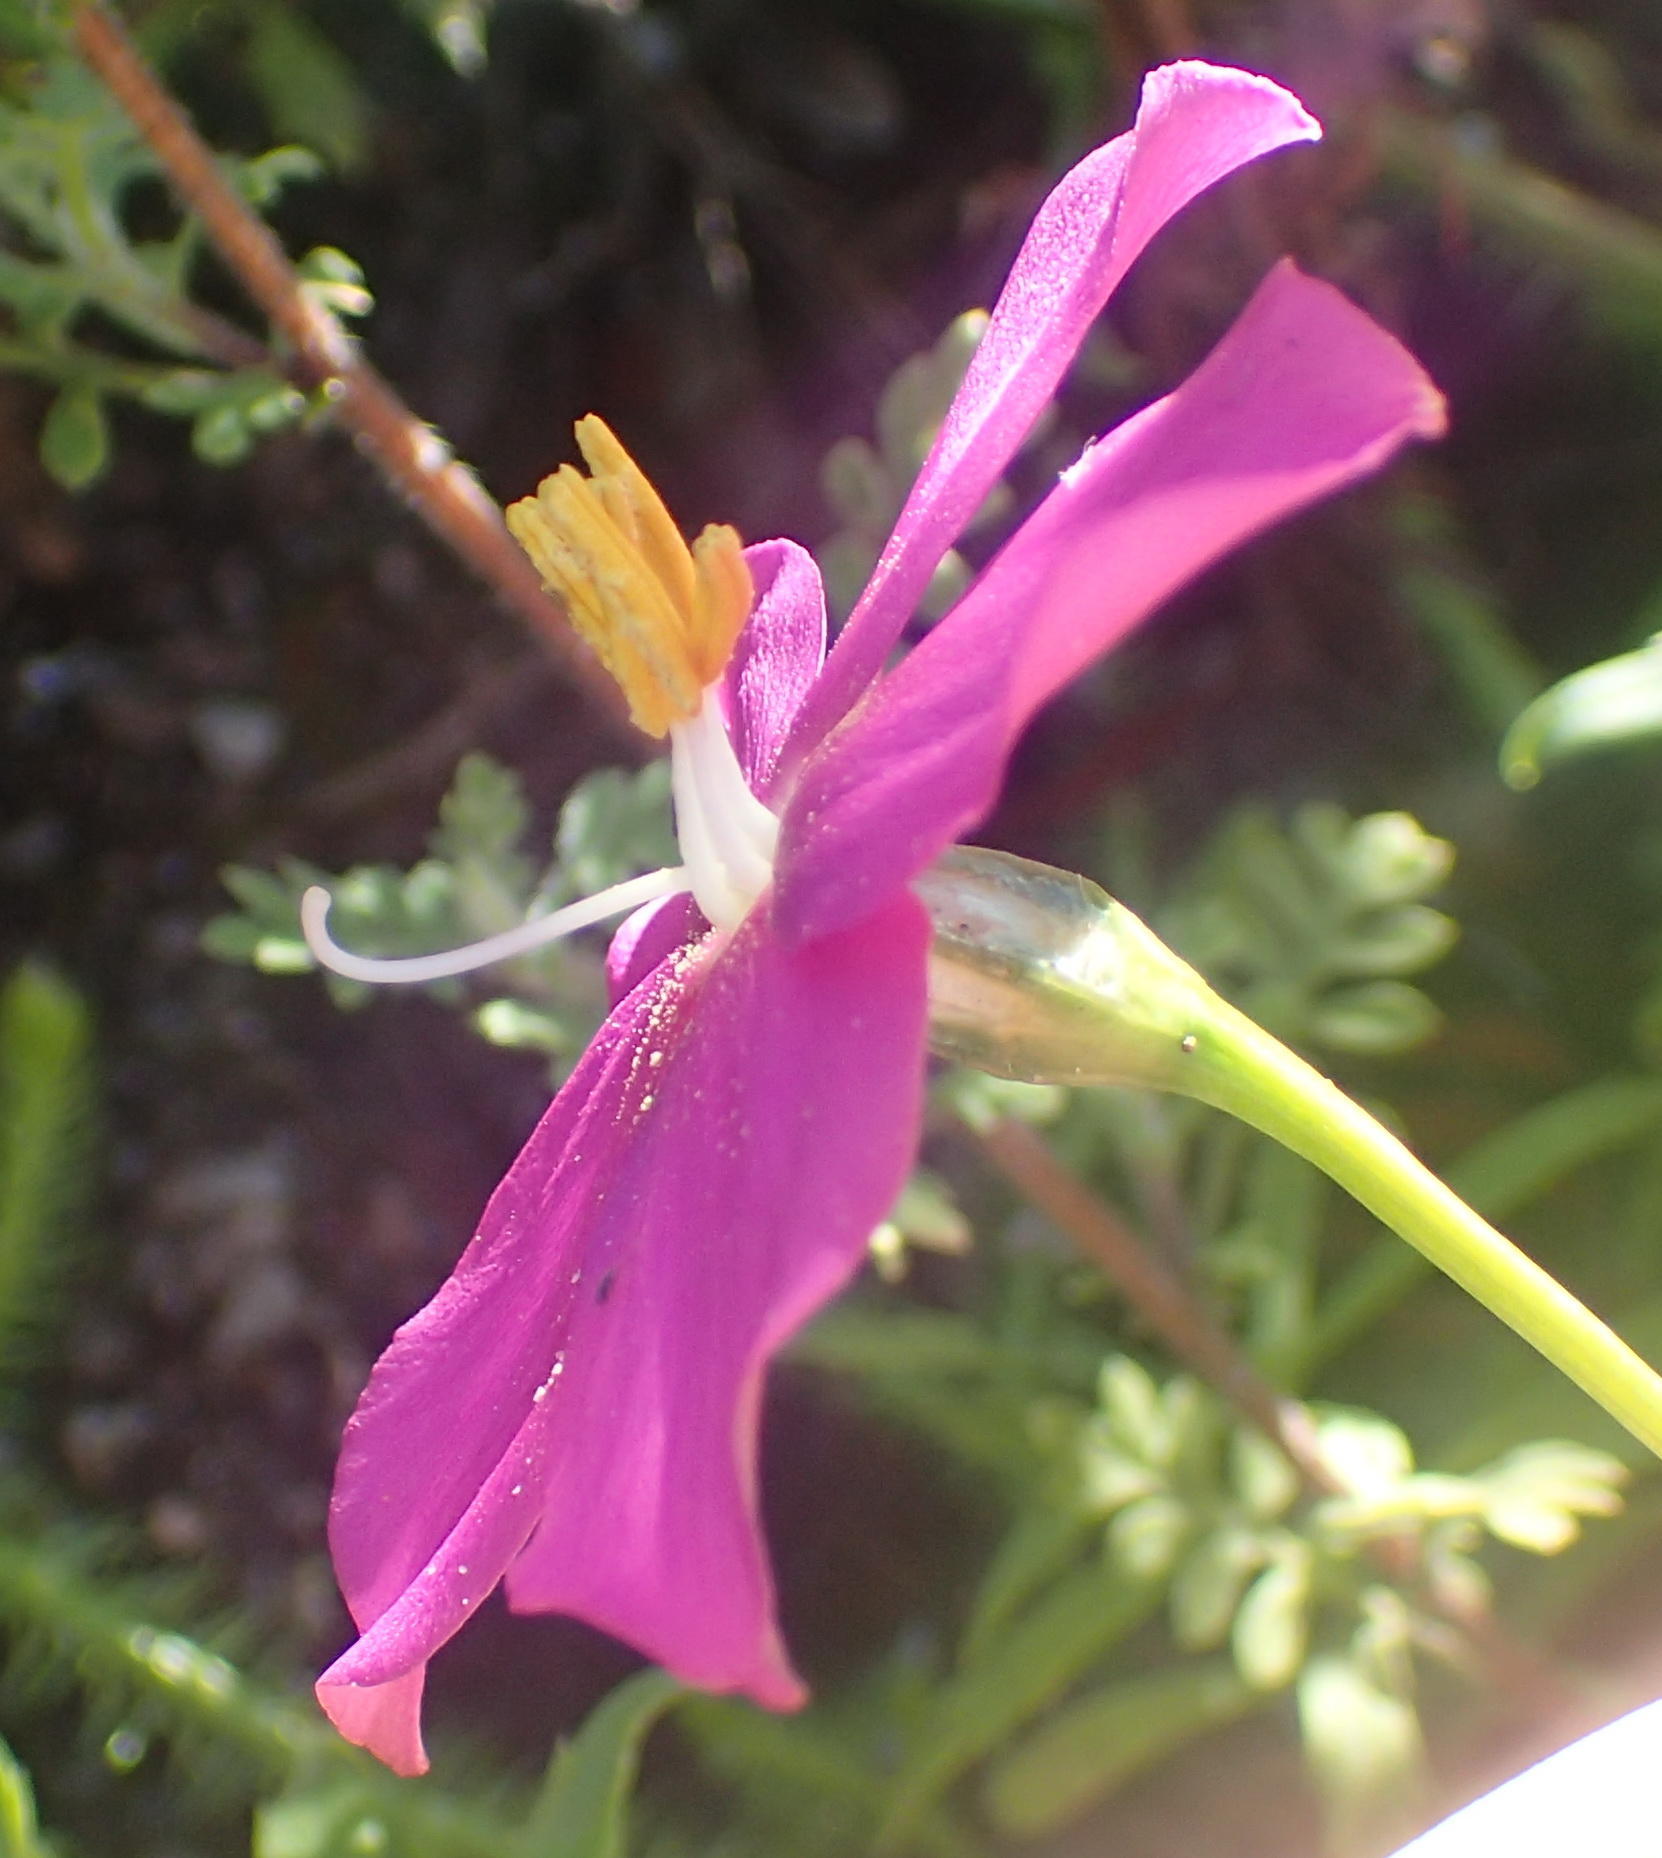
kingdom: Plantae
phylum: Tracheophyta
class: Magnoliopsida
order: Gentianales
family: Gentianaceae
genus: Chironia
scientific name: Chironia melampyrifolia
